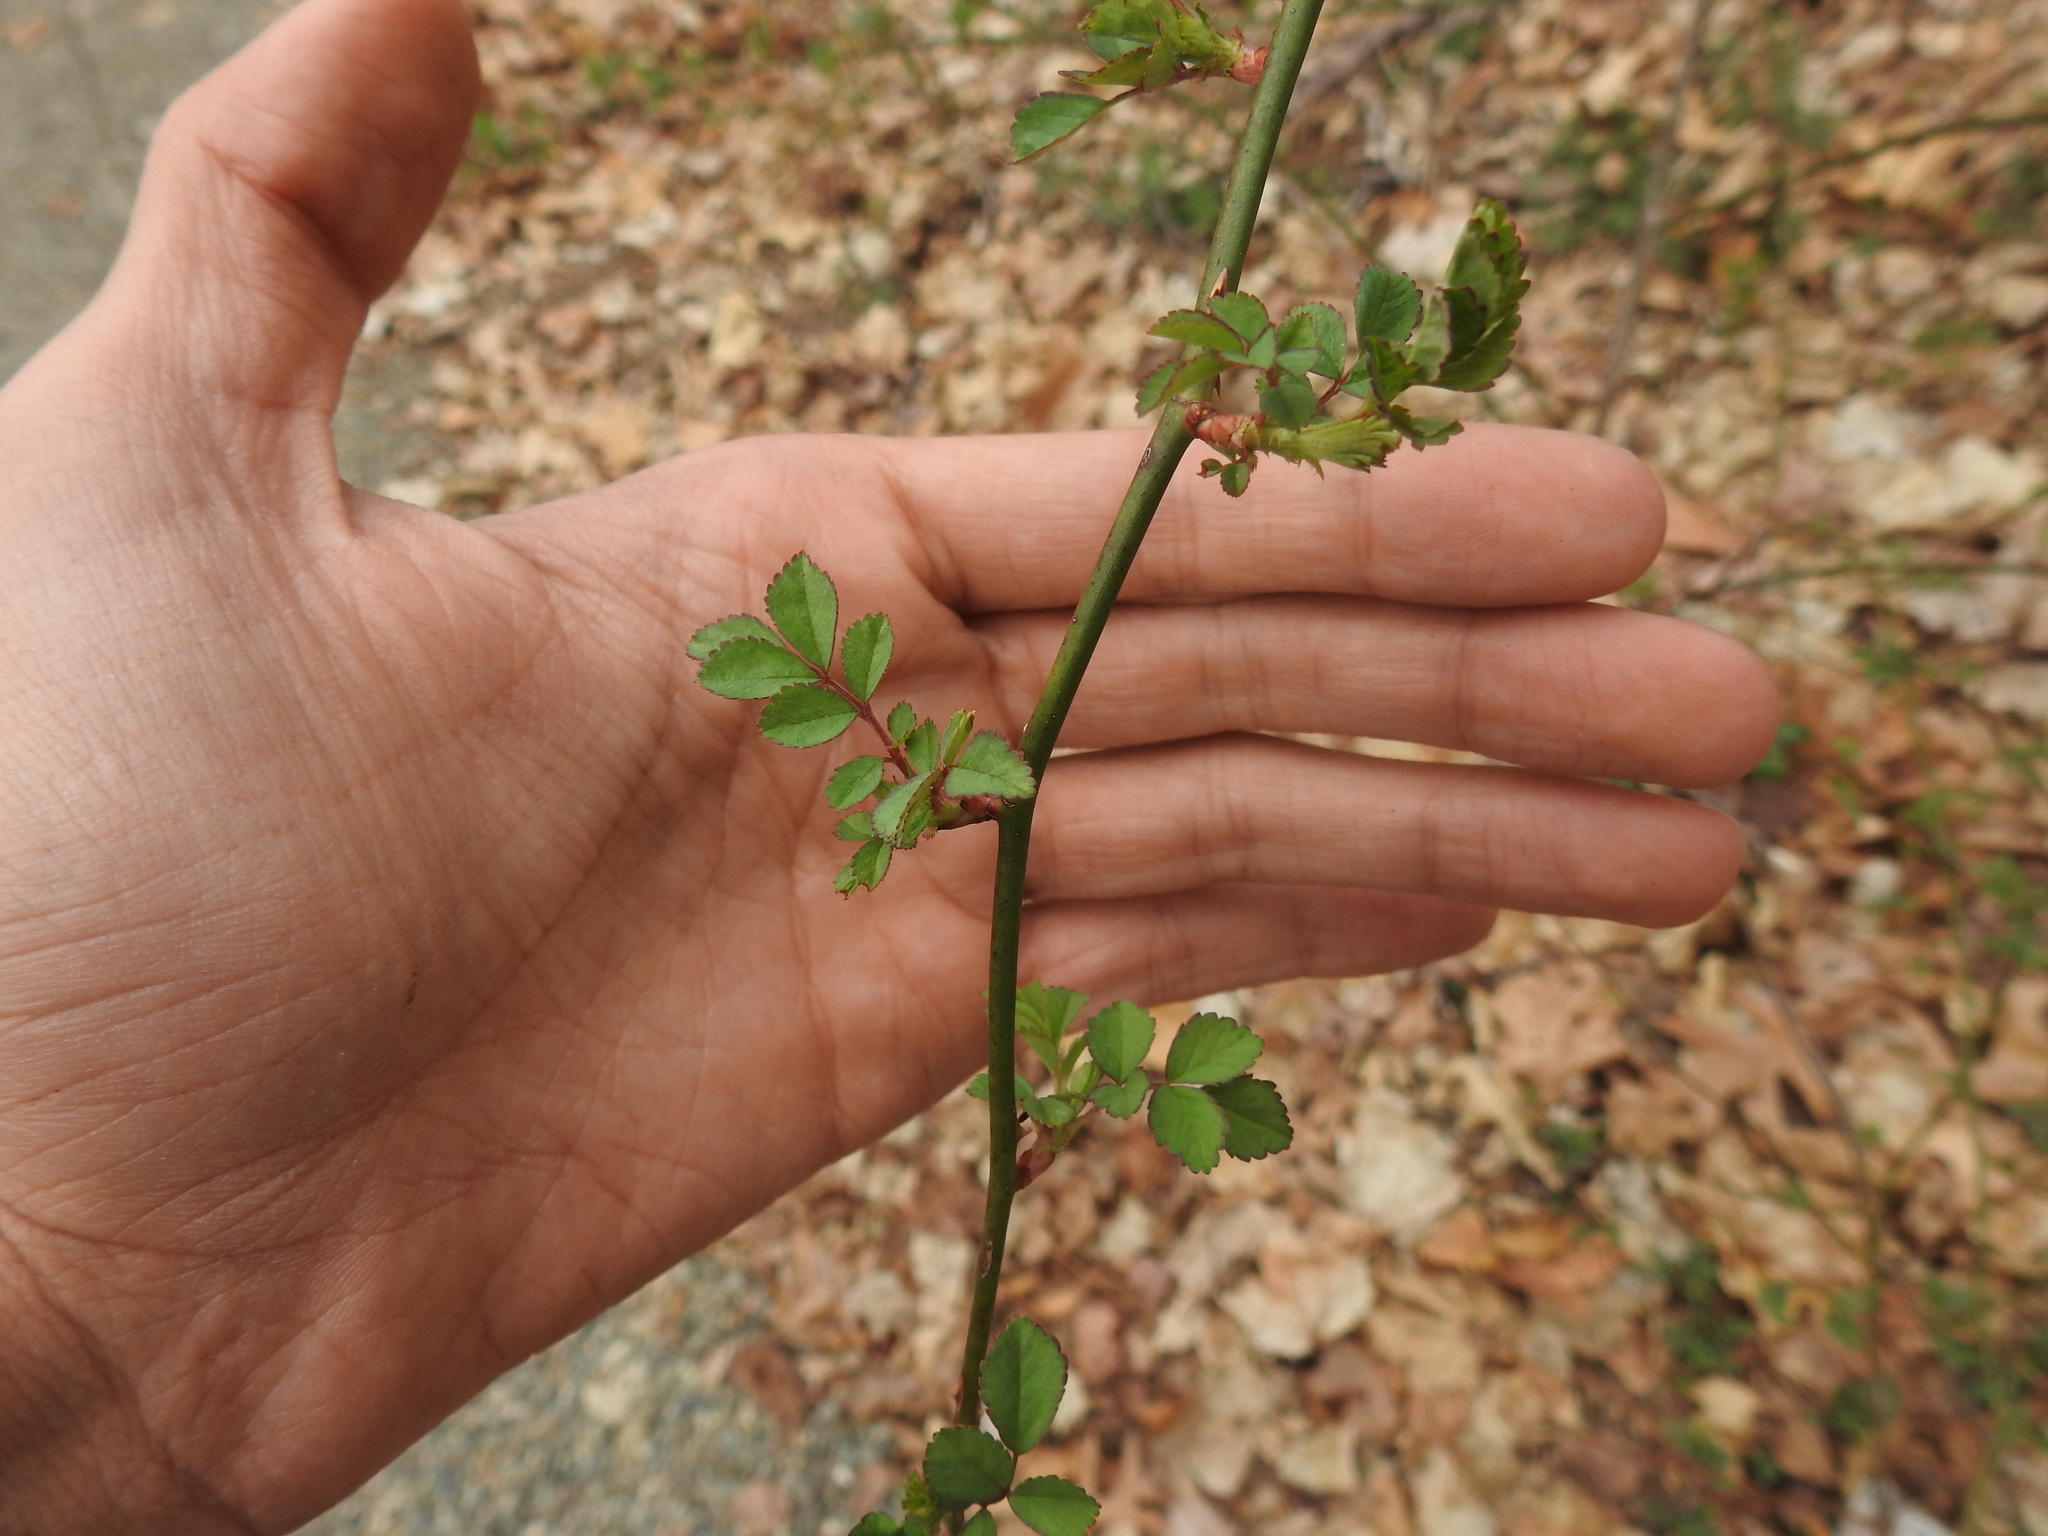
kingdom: Plantae
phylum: Tracheophyta
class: Magnoliopsida
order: Rosales
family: Rosaceae
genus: Rosa
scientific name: Rosa multiflora
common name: Multiflora rose
